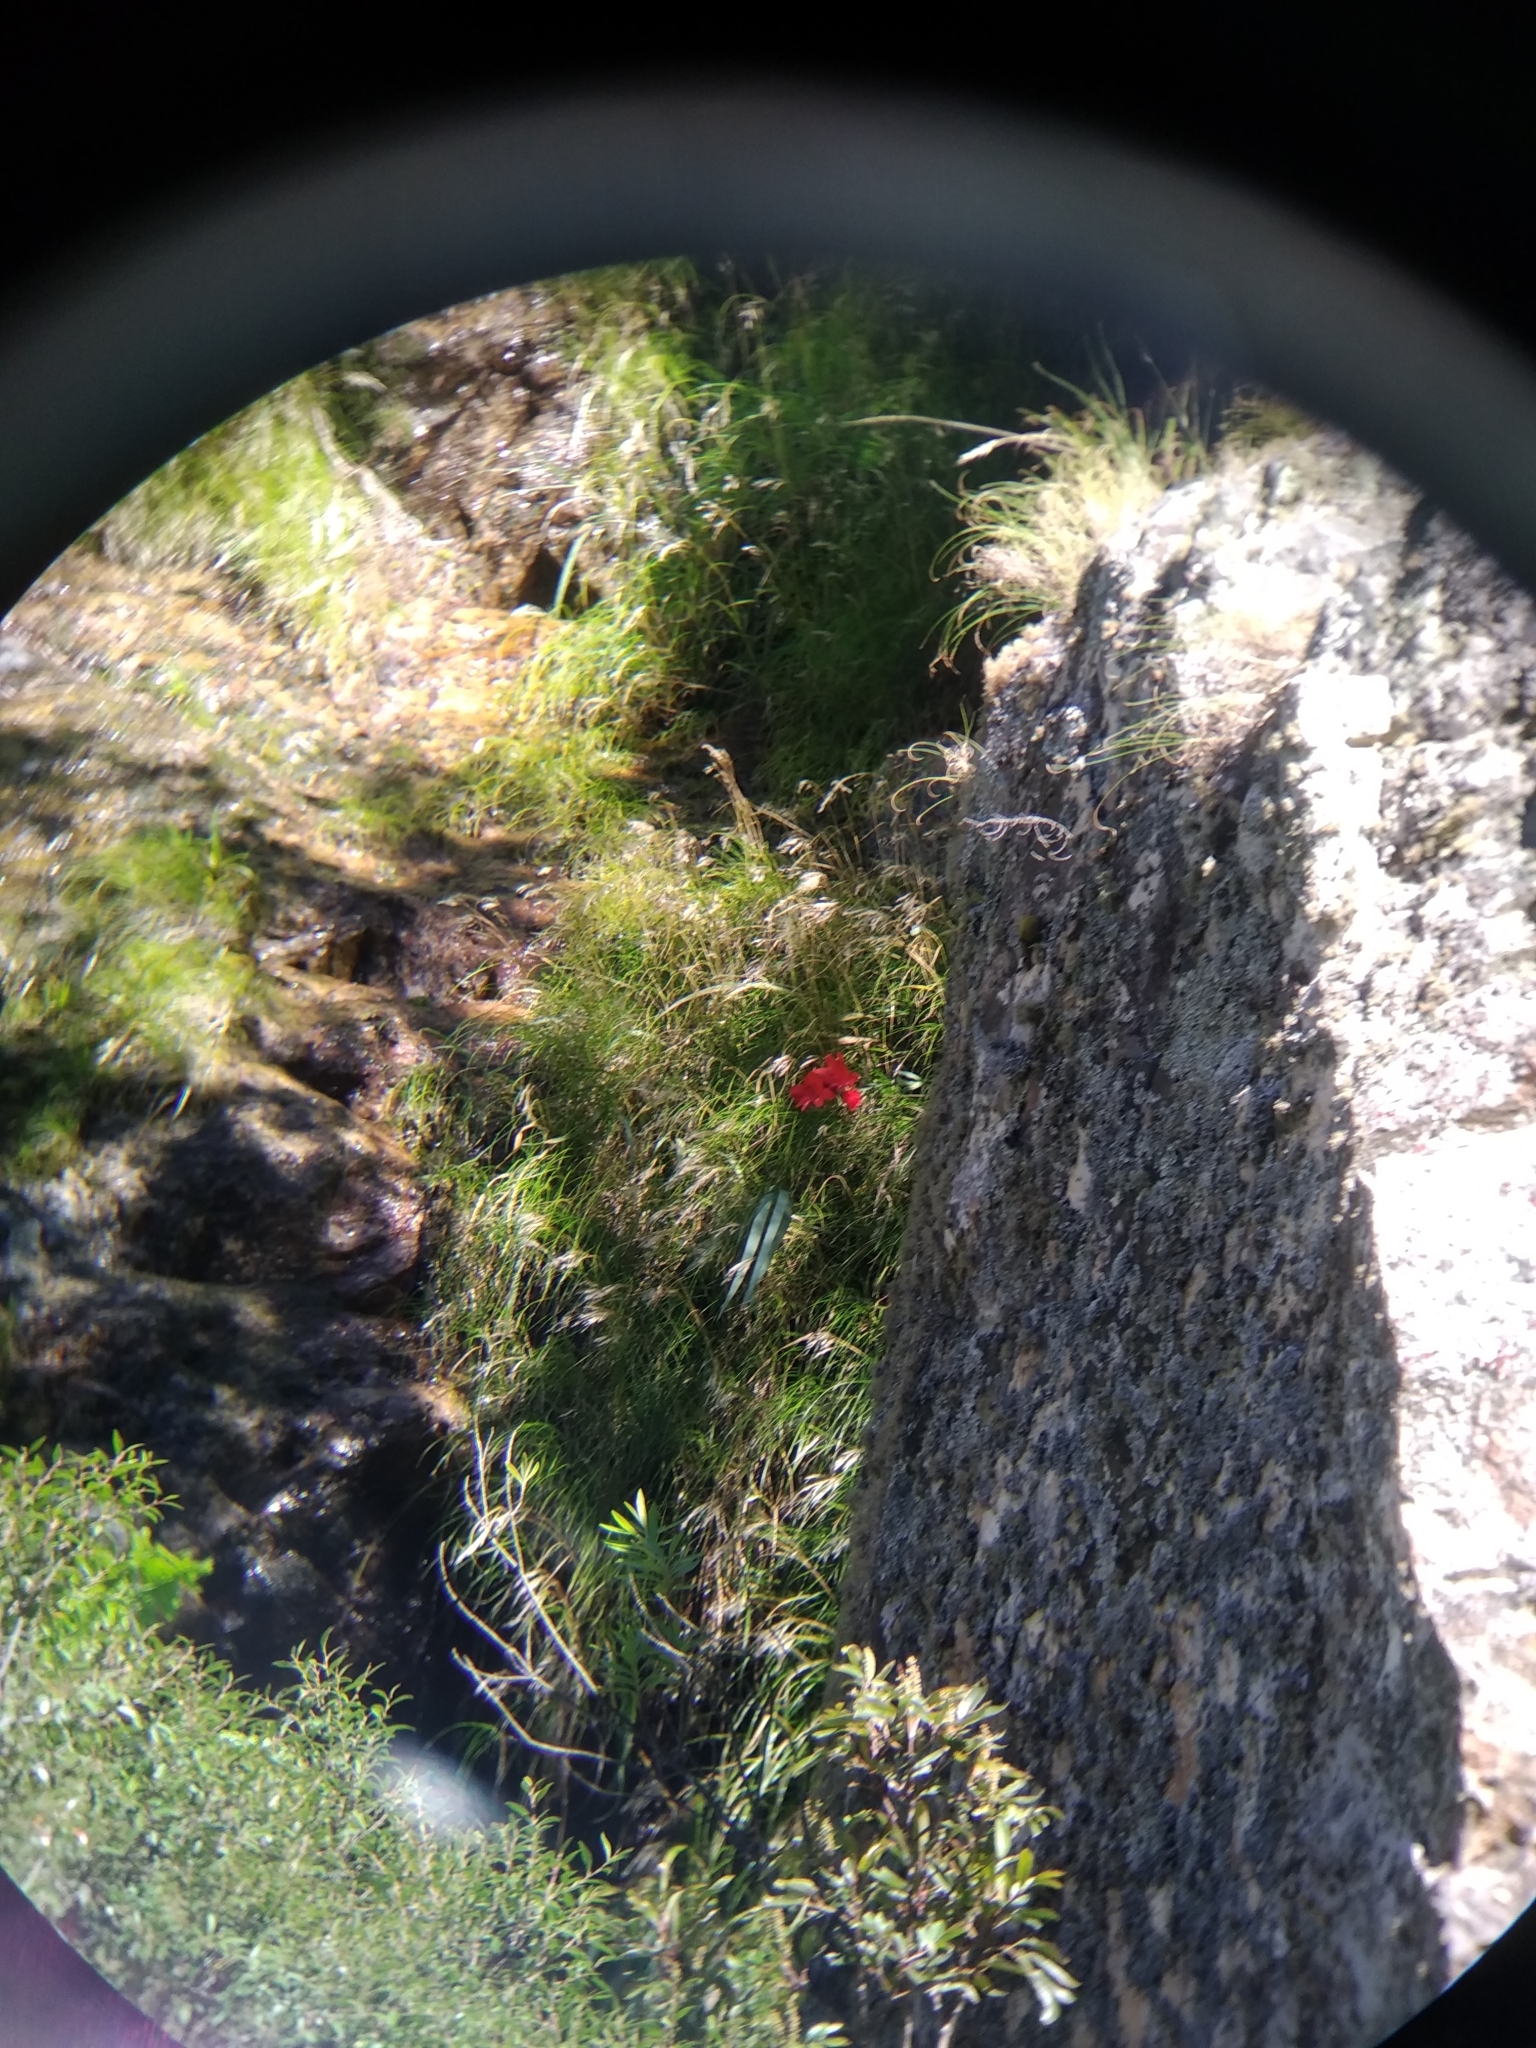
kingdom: Plantae
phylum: Tracheophyta
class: Liliopsida
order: Asparagales
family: Iridaceae
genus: Gladiolus
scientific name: Gladiolus cardinalis
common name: New year-lily
